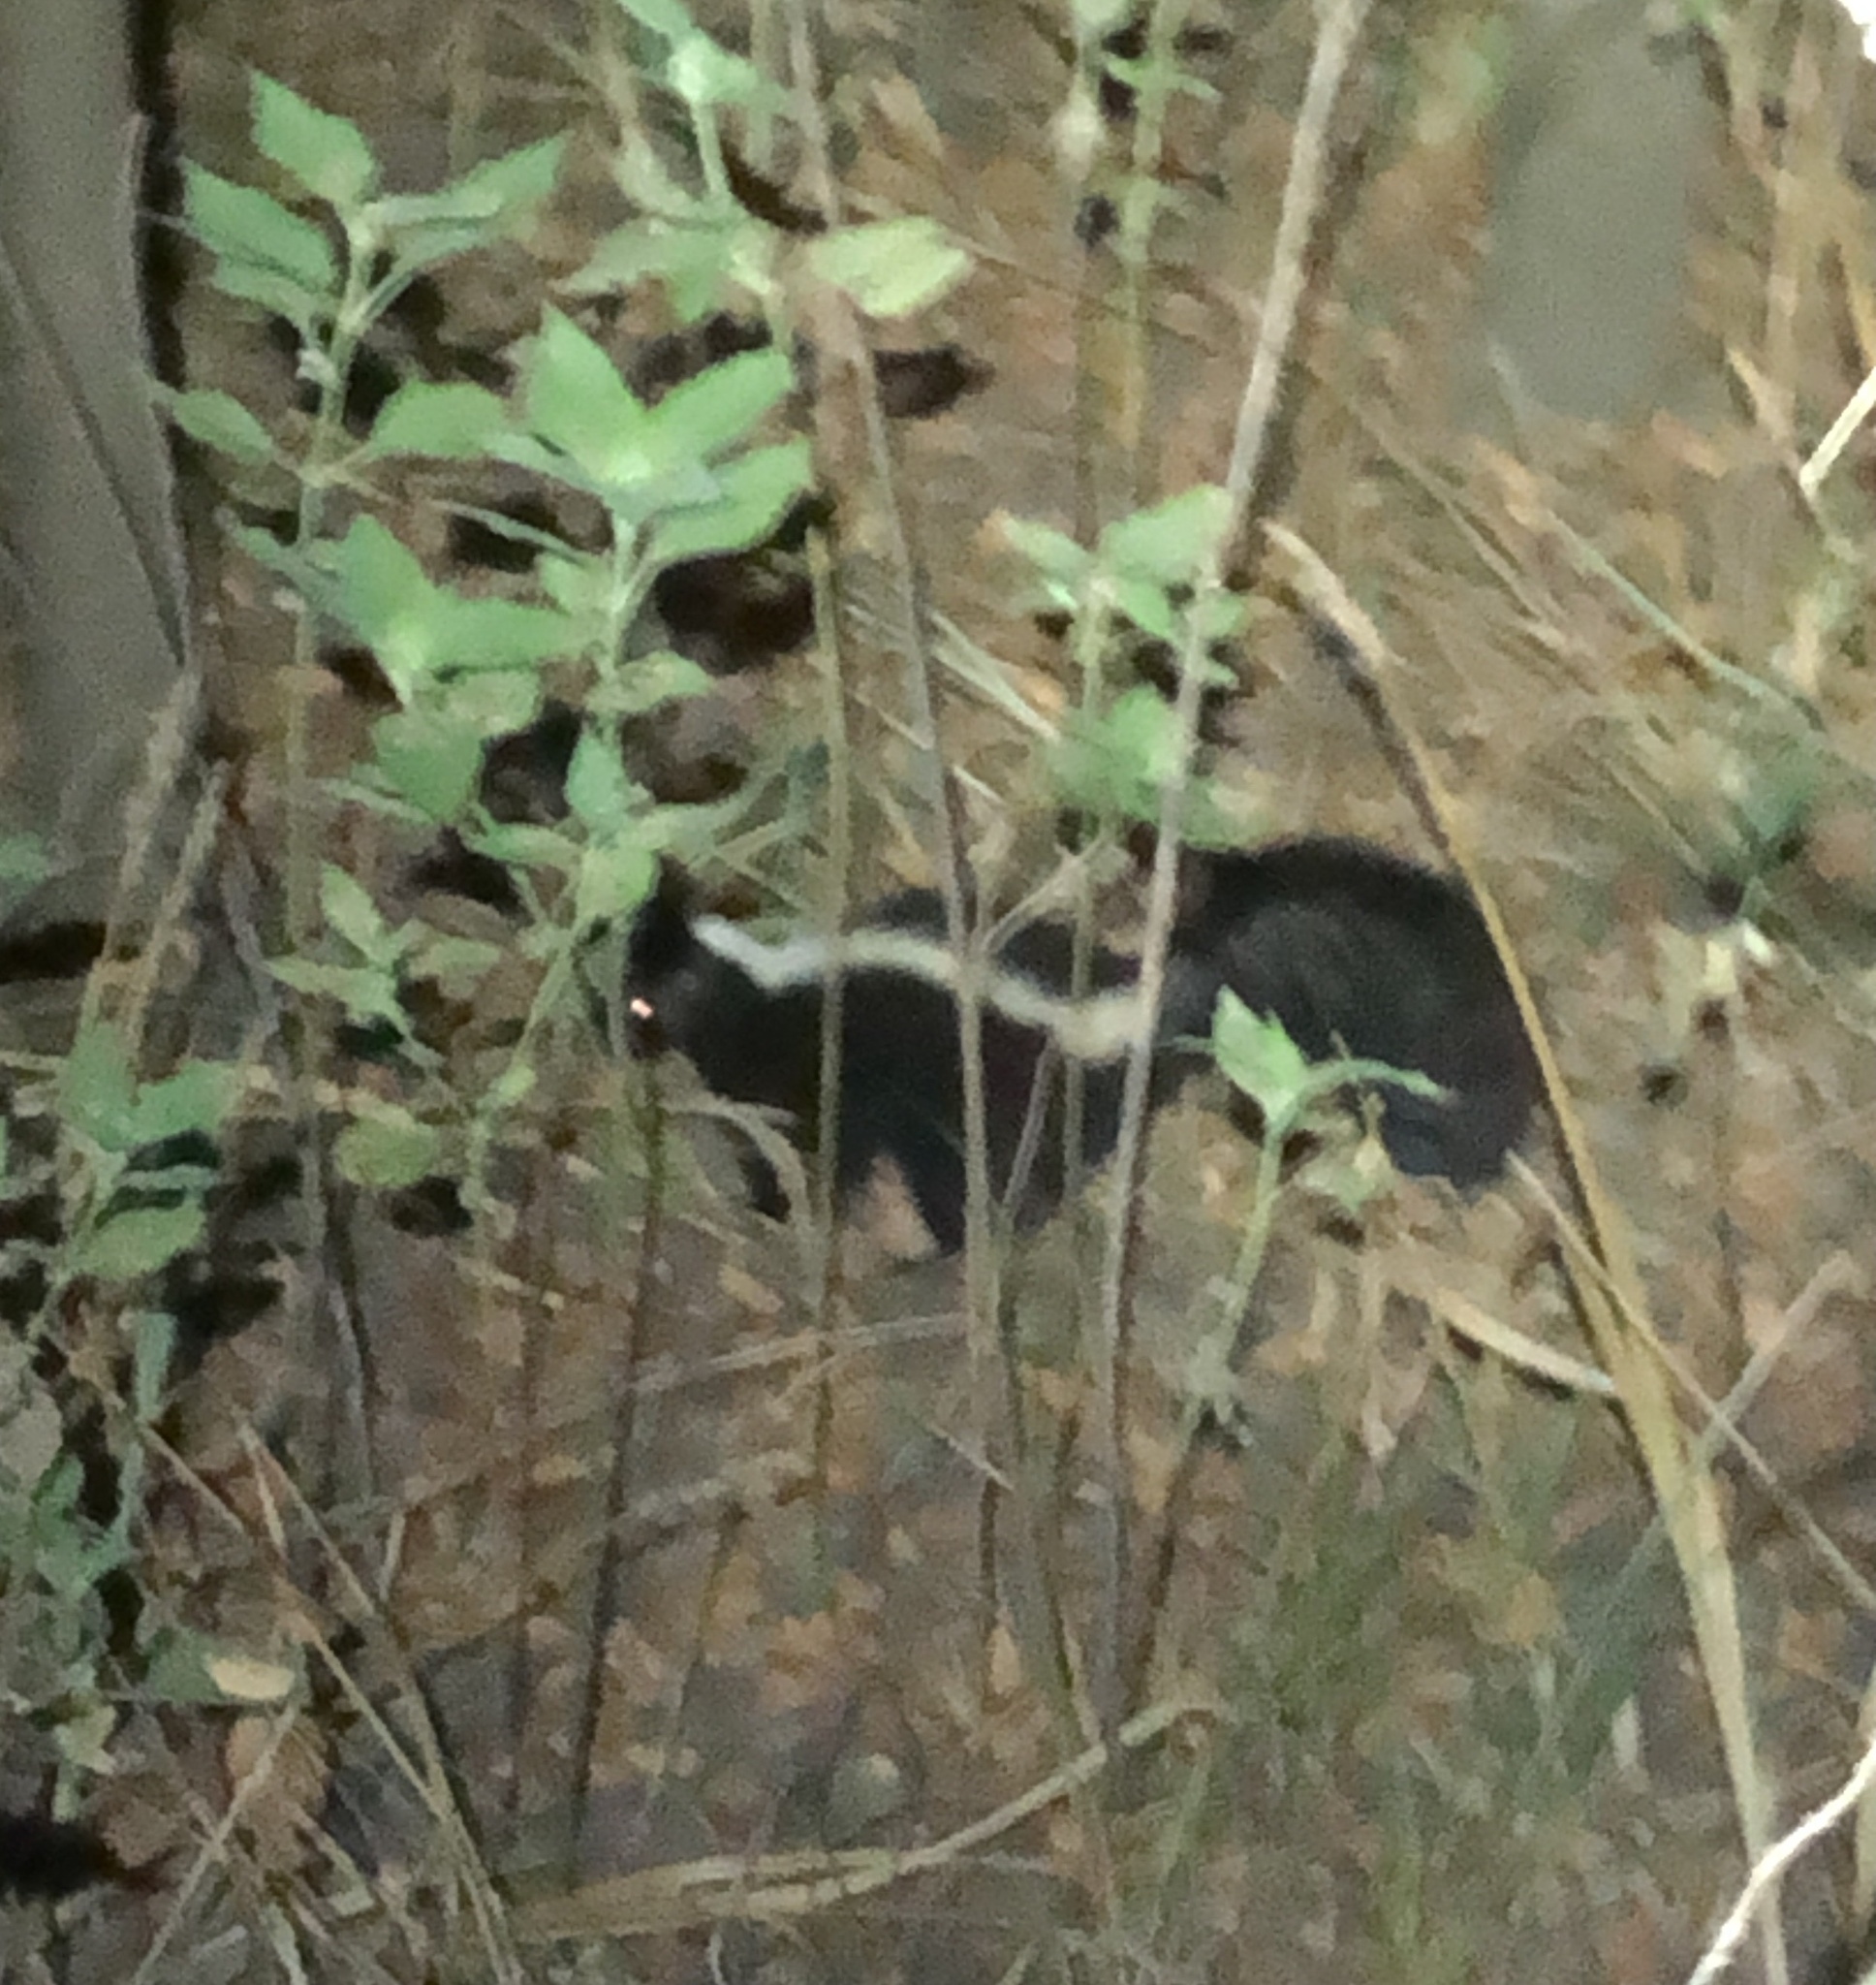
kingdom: Animalia
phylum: Chordata
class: Mammalia
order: Carnivora
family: Mephitidae
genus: Mephitis
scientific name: Mephitis mephitis
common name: Striped skunk
